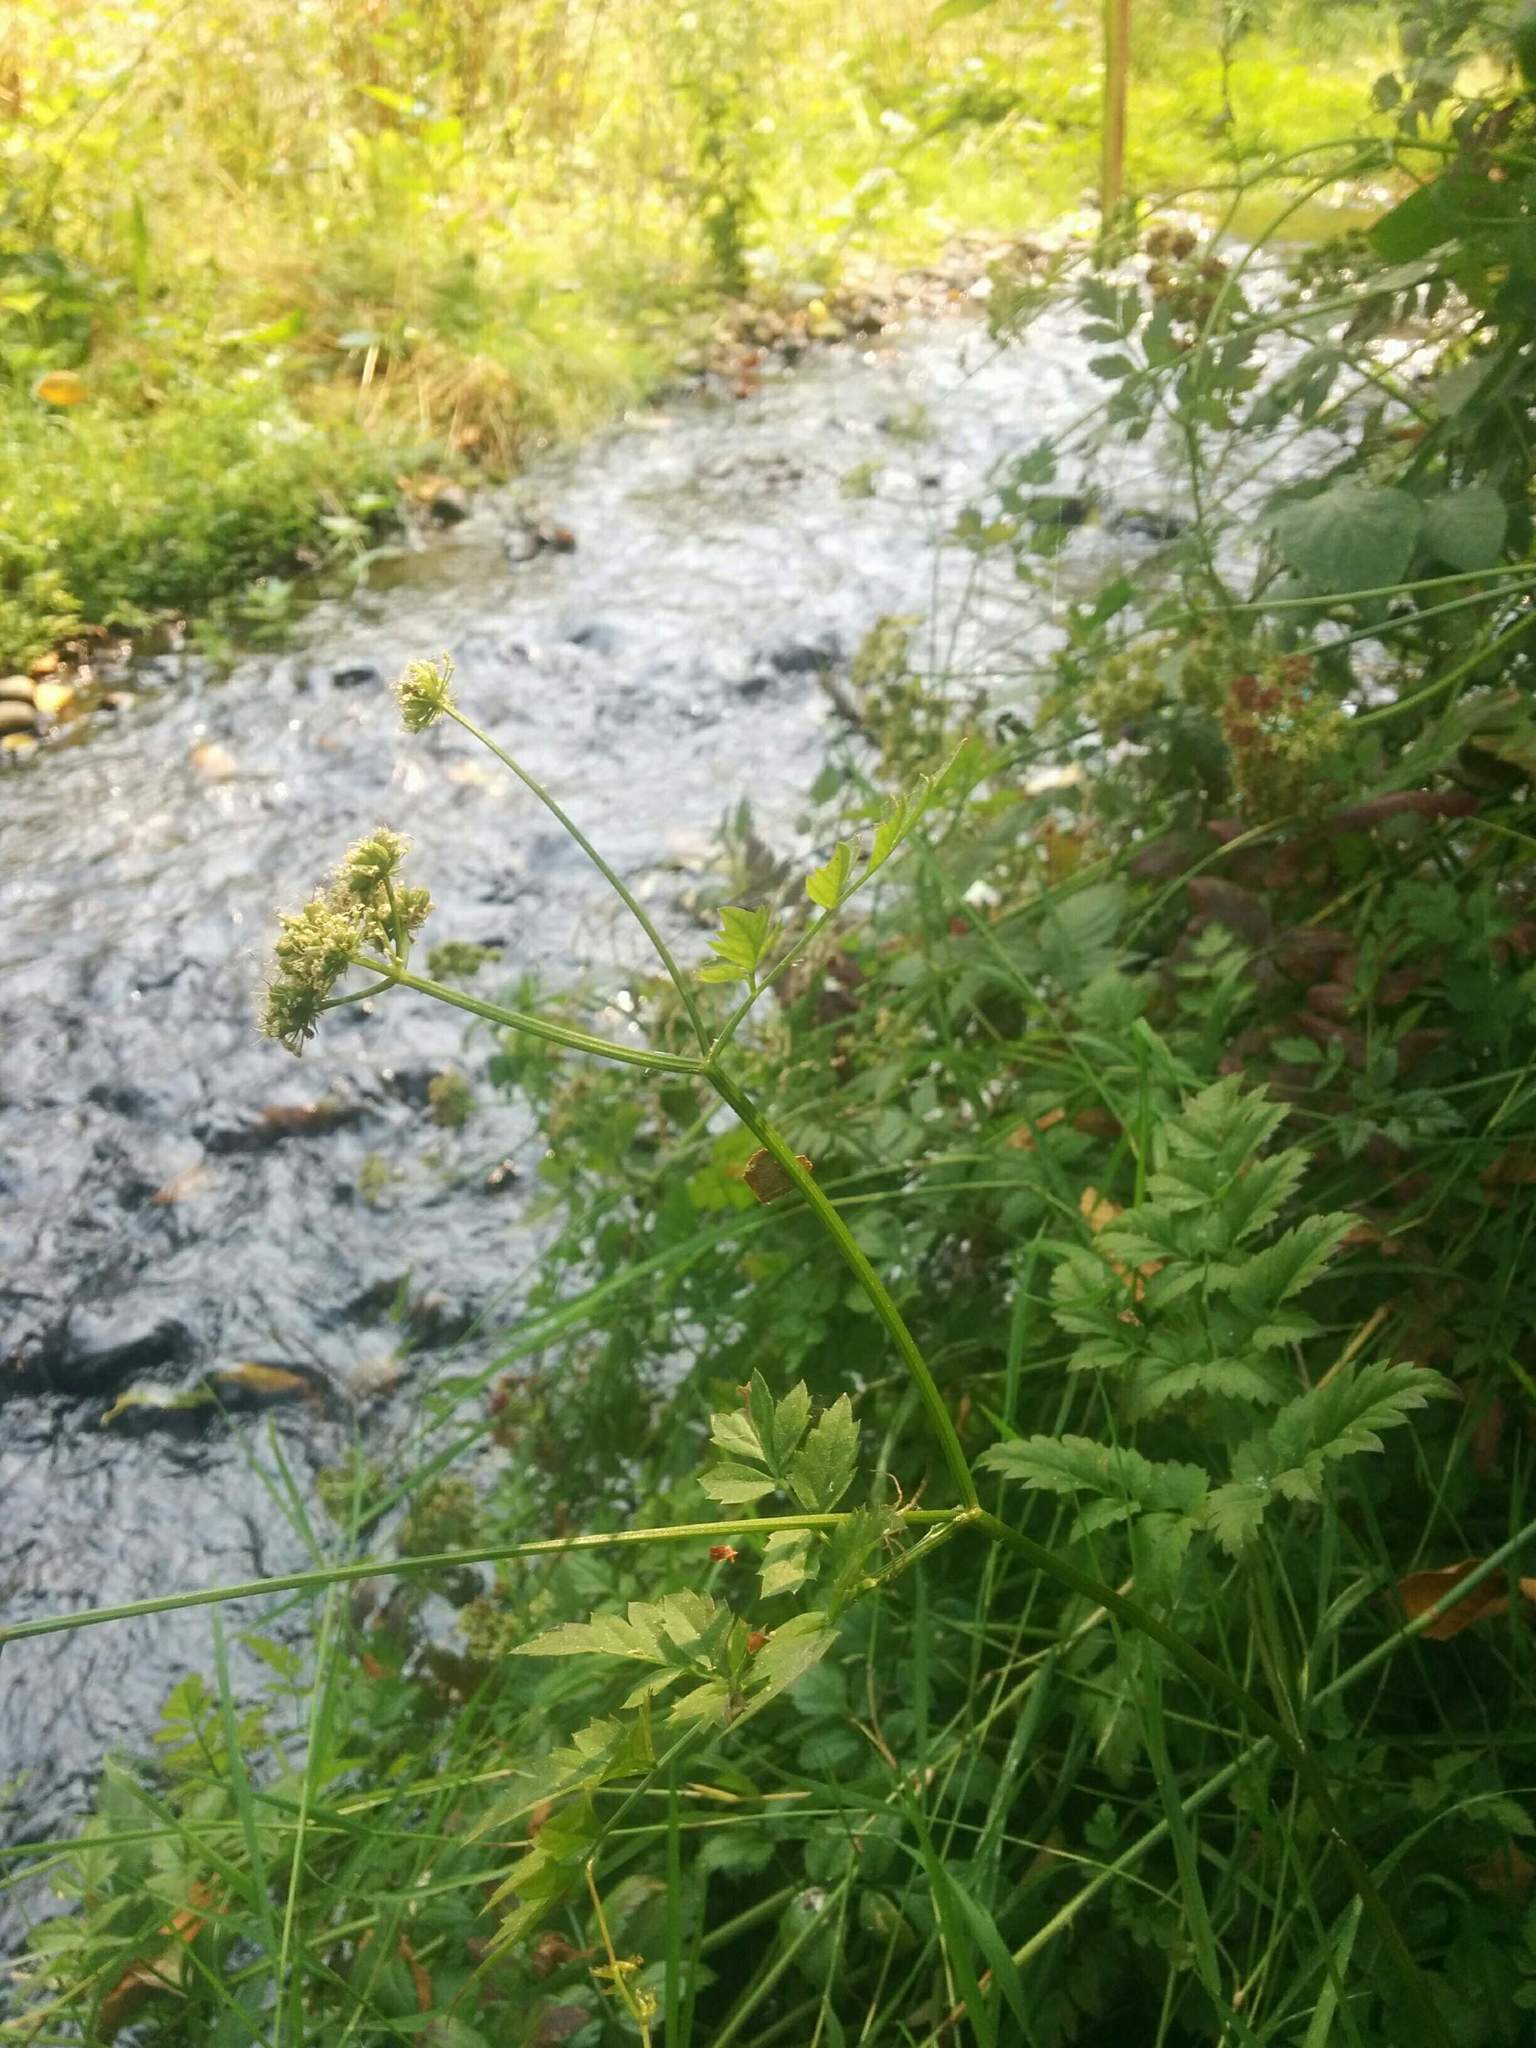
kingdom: Plantae
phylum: Tracheophyta
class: Magnoliopsida
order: Apiales
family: Apiaceae
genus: Oenanthe
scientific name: Oenanthe sarmentosa
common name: American water-parsley
